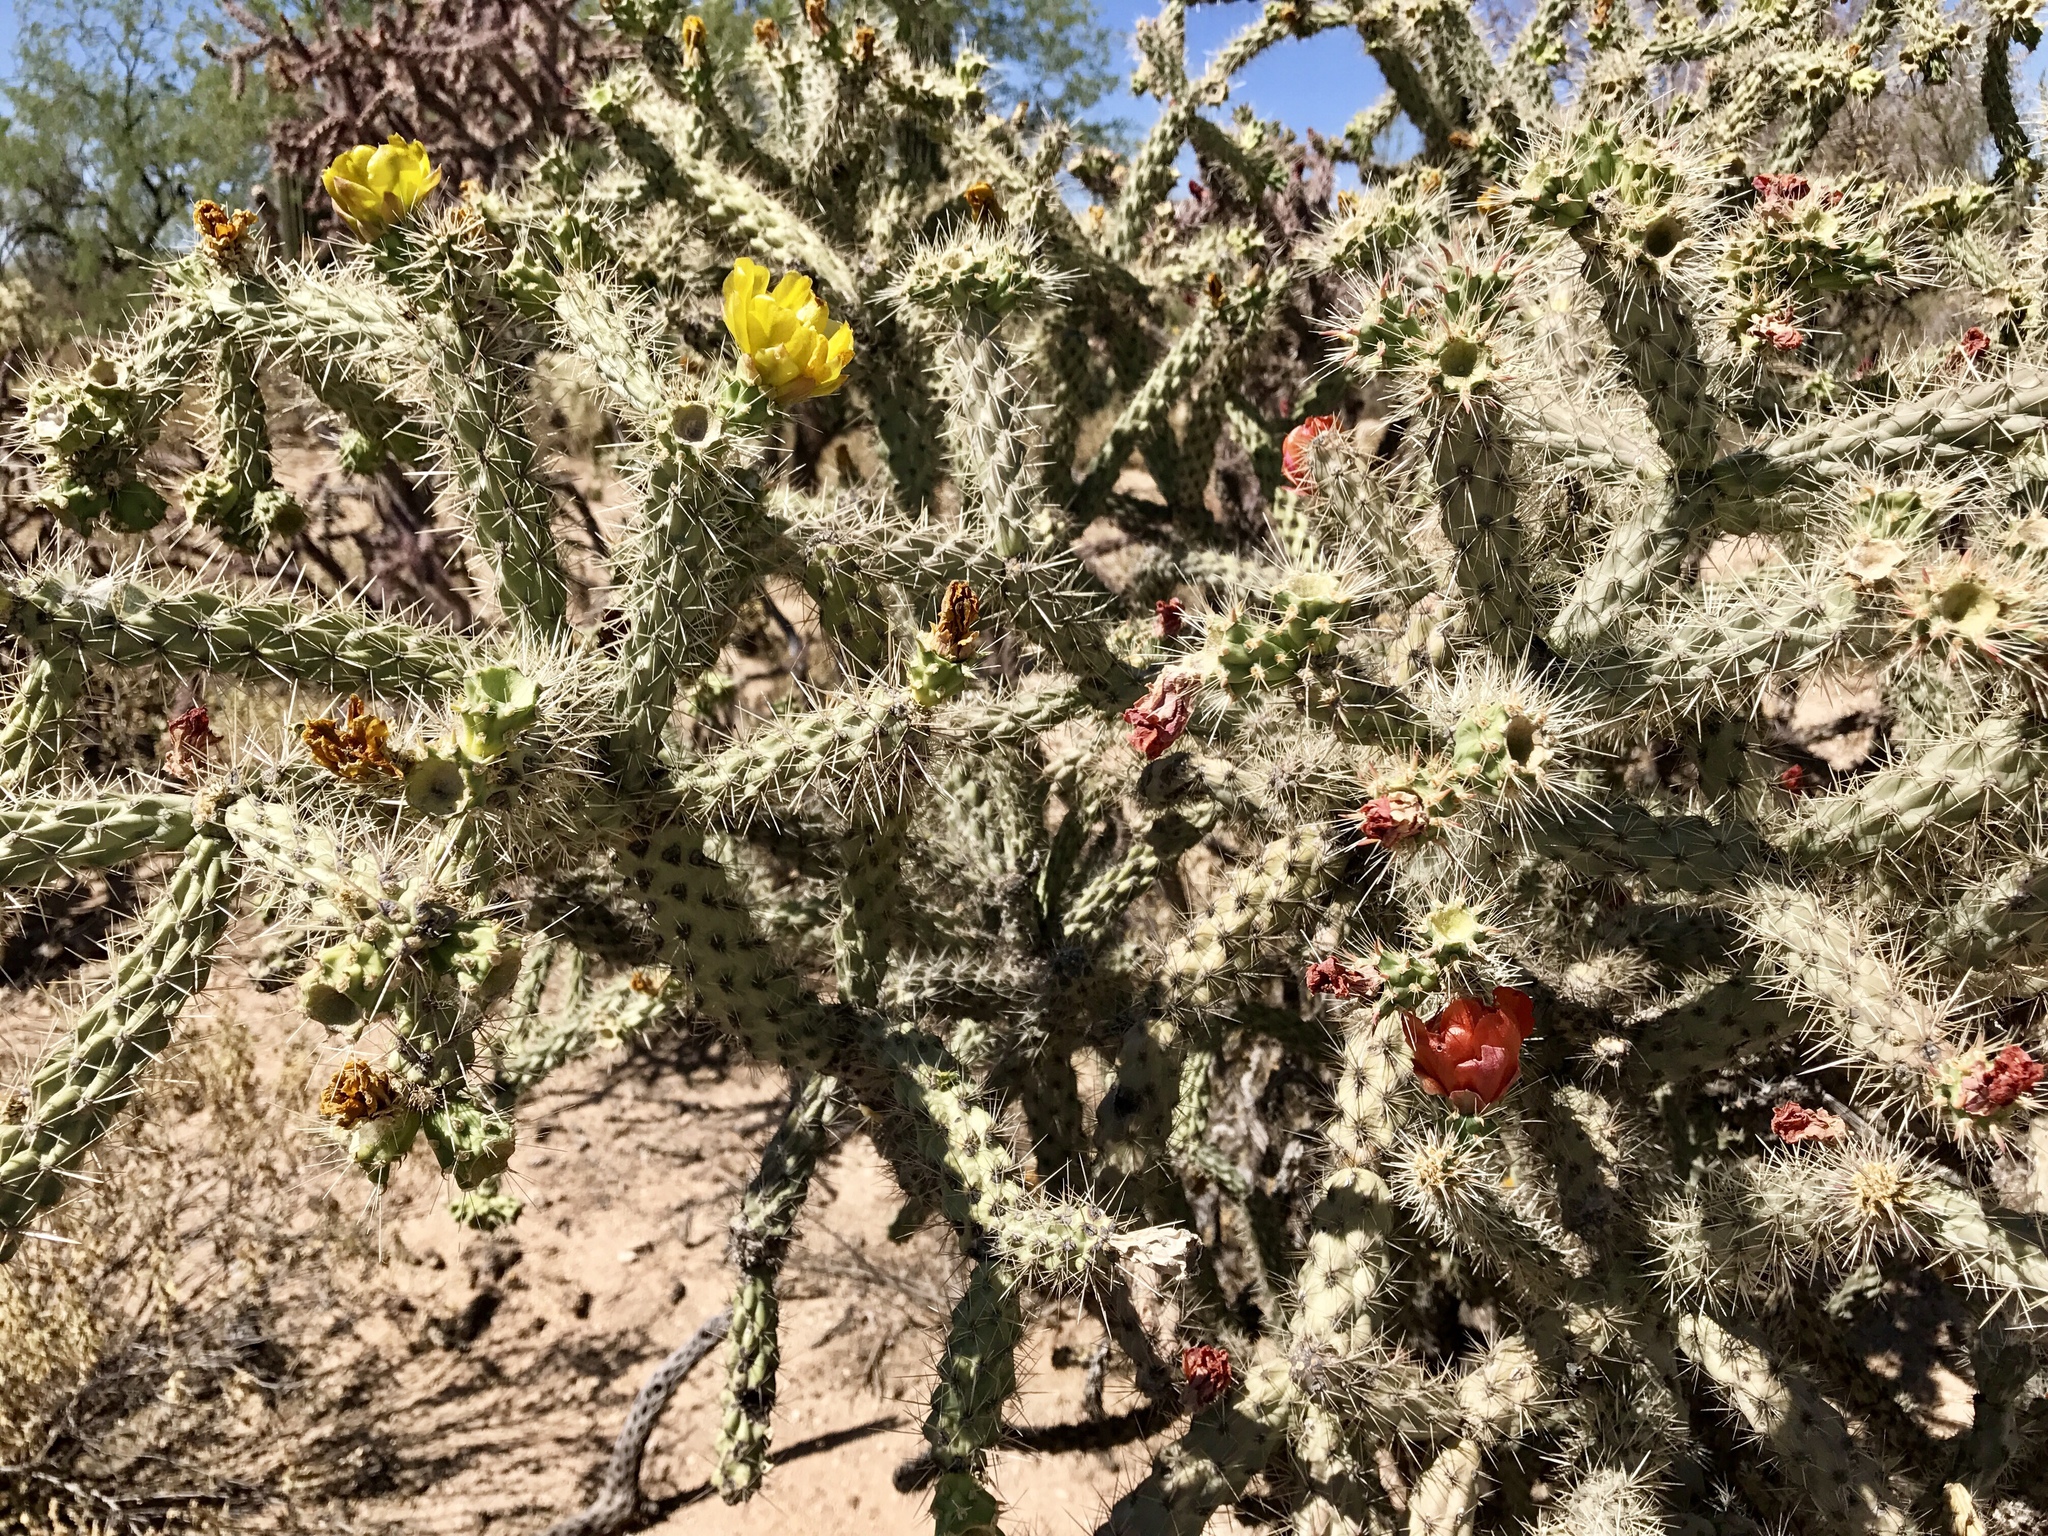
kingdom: Plantae
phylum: Tracheophyta
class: Magnoliopsida
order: Caryophyllales
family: Cactaceae
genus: Cylindropuntia
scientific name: Cylindropuntia acanthocarpa
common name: Buckhorn cholla
